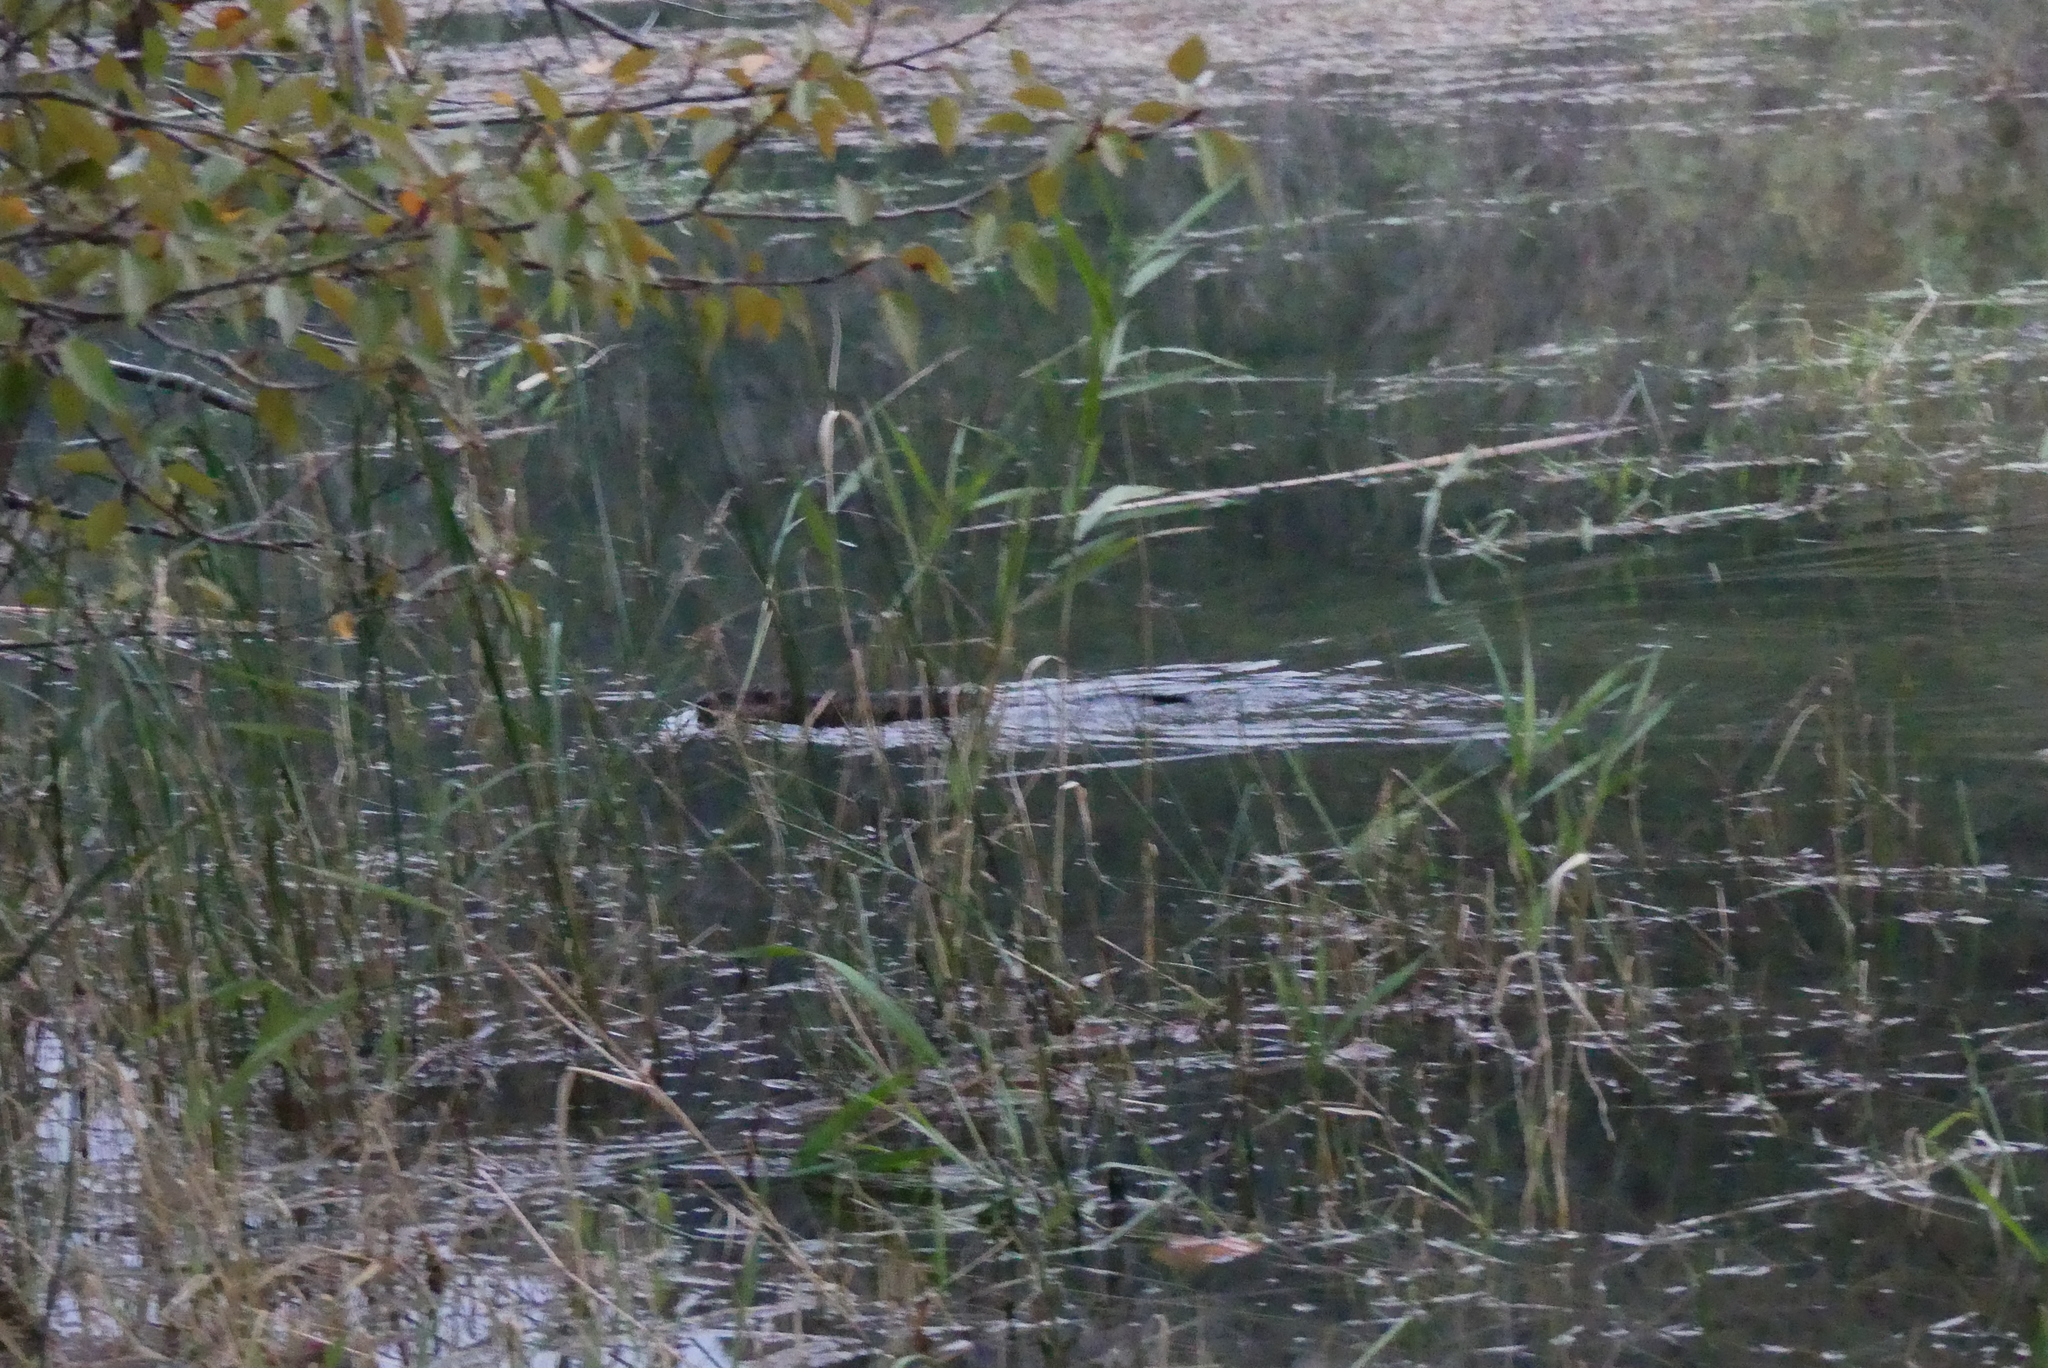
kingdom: Animalia
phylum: Chordata
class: Mammalia
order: Rodentia
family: Cricetidae
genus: Ondatra
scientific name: Ondatra zibethicus
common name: Muskrat
